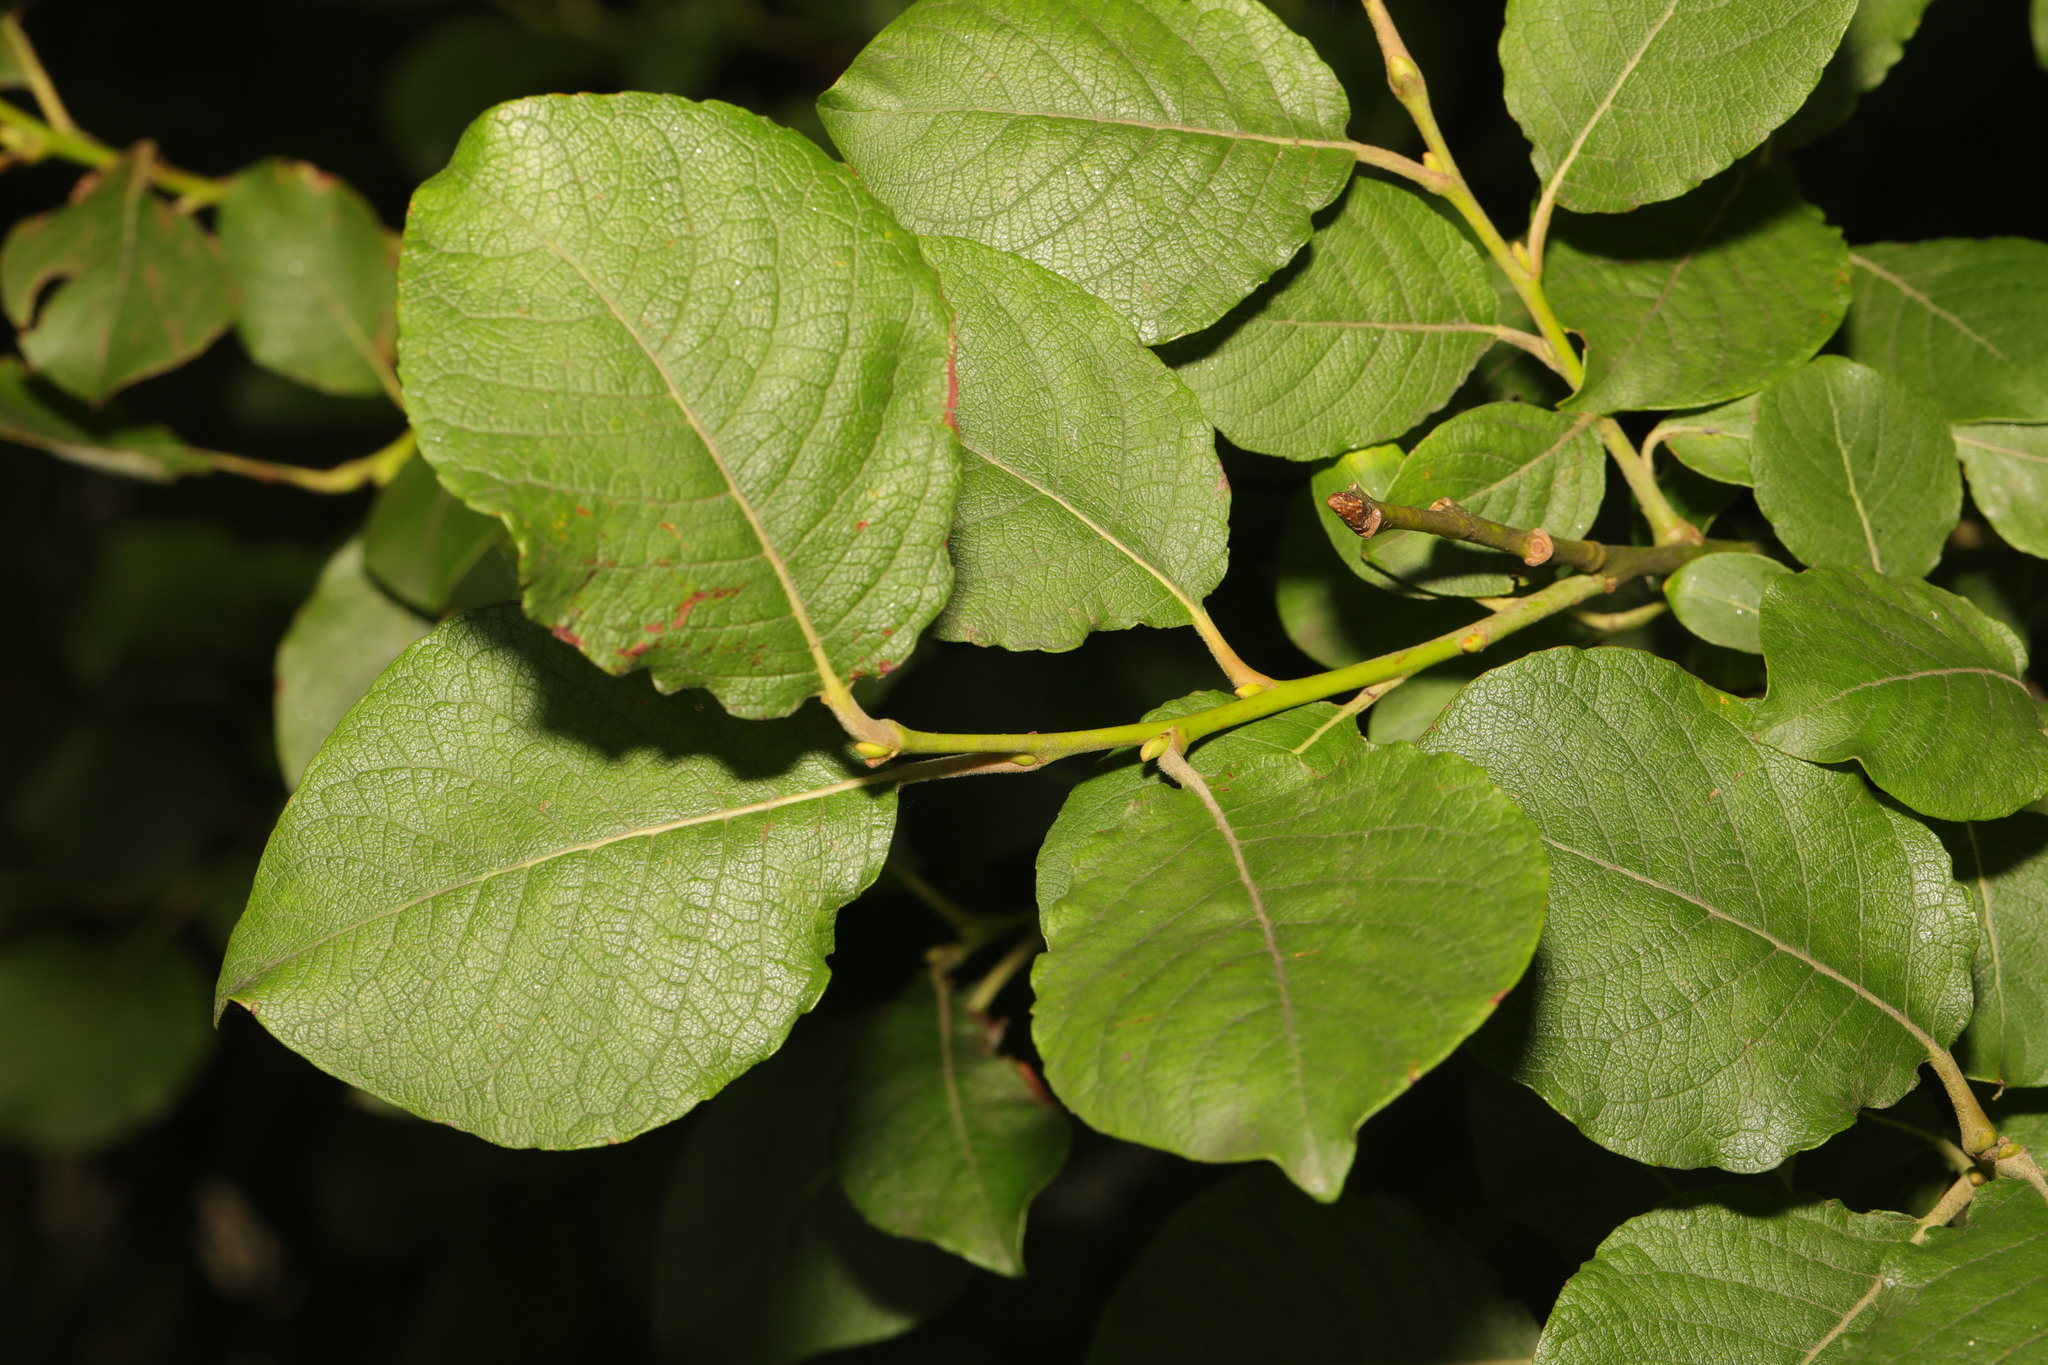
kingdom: Plantae
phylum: Tracheophyta
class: Magnoliopsida
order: Malpighiales
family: Salicaceae
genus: Salix
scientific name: Salix caprea
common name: Goat willow
